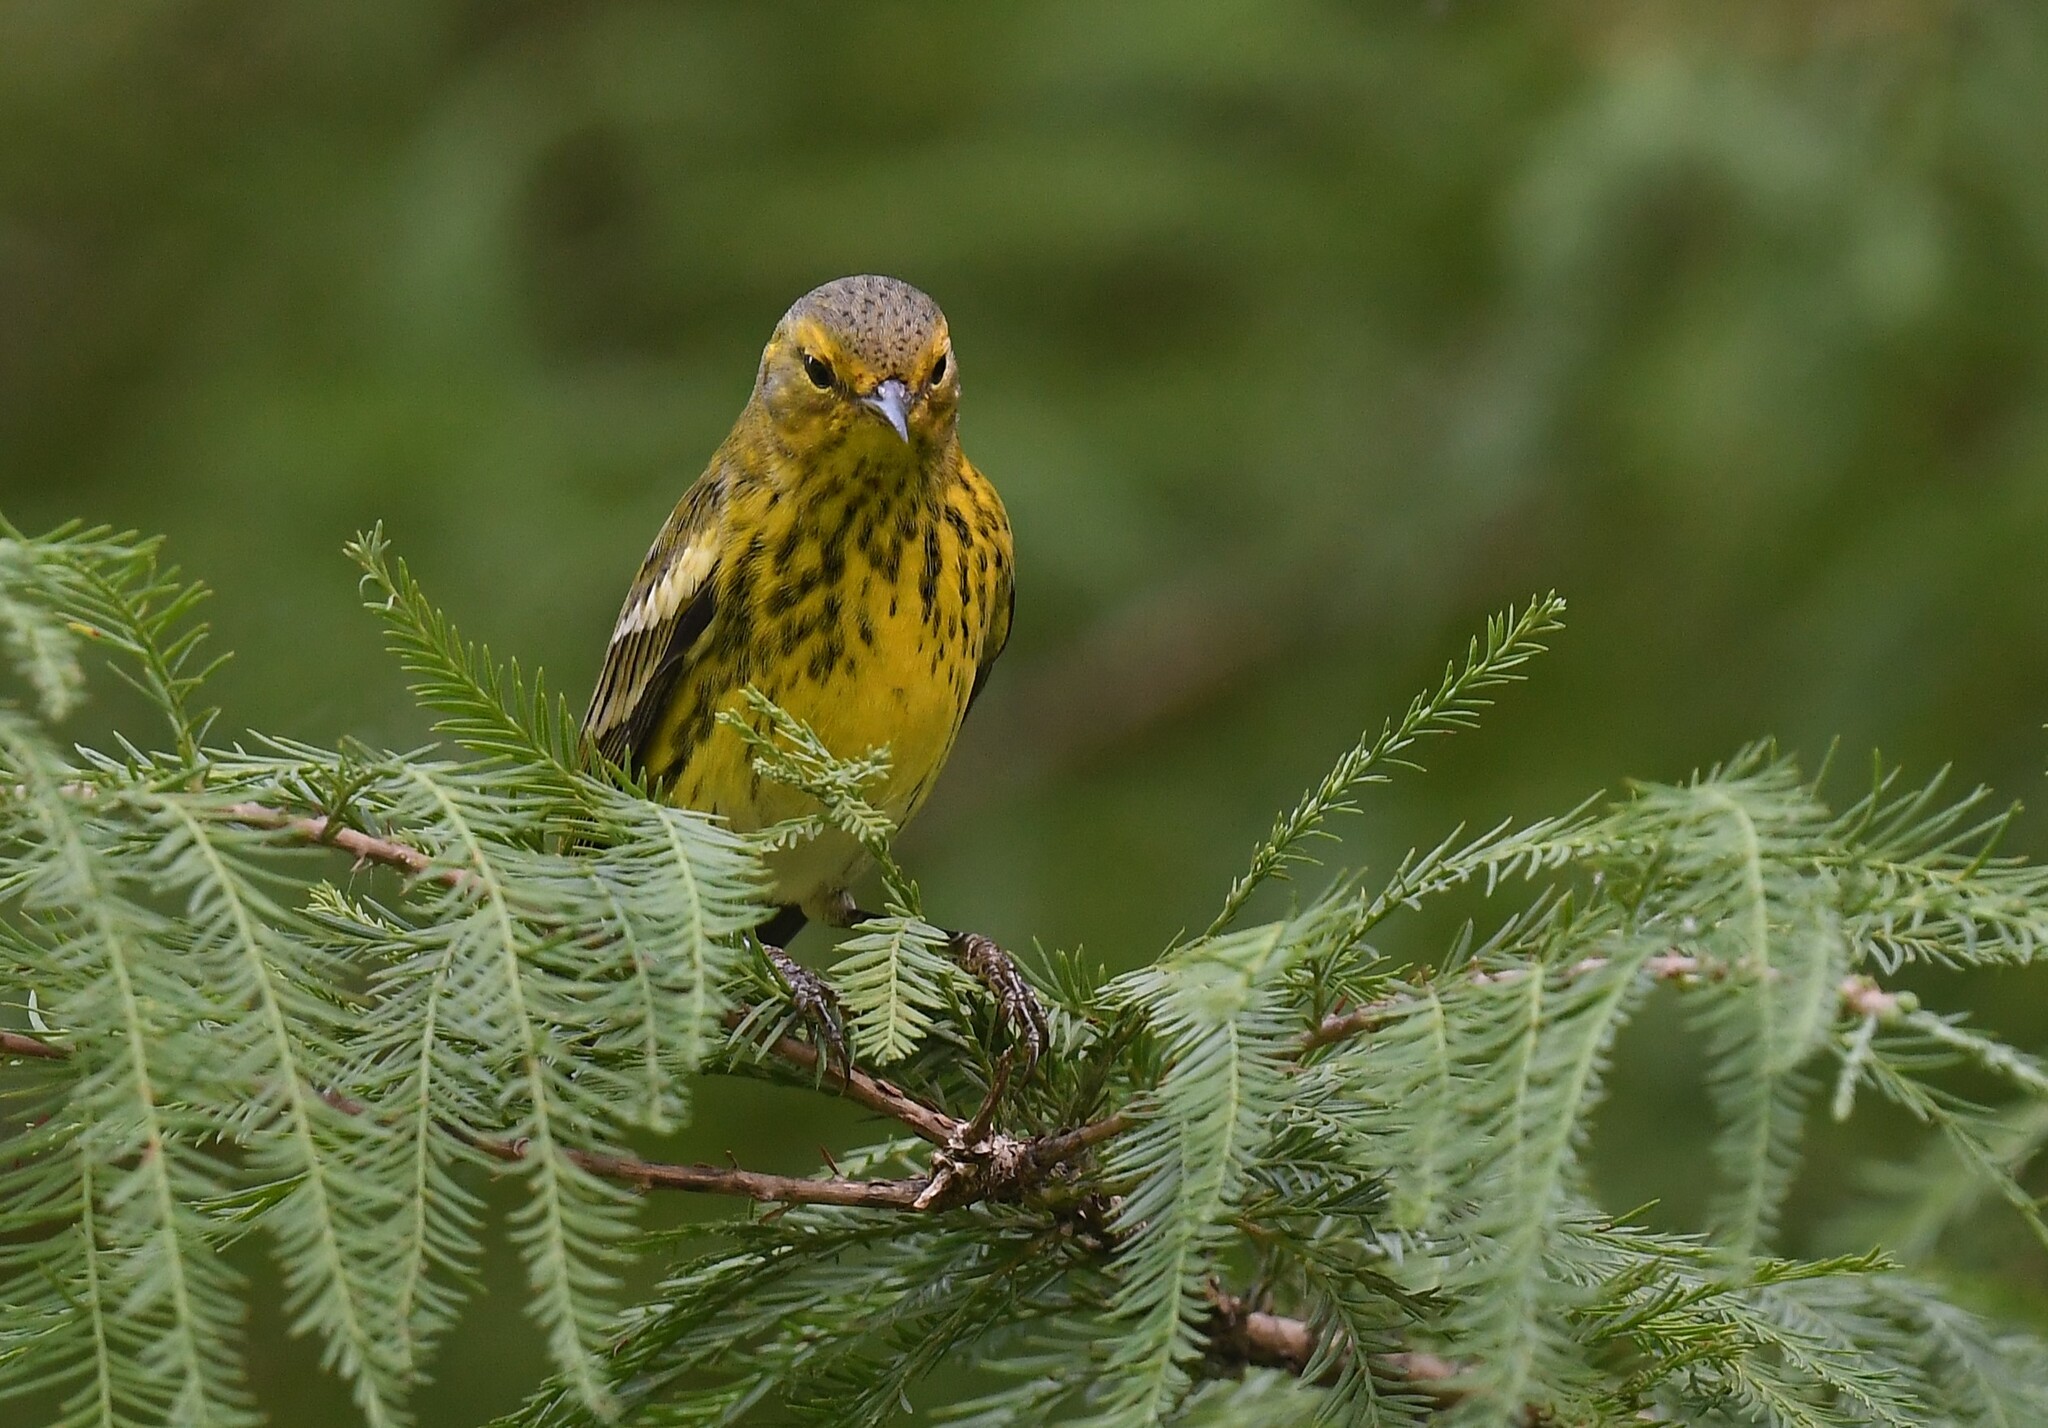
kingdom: Animalia
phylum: Chordata
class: Aves
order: Passeriformes
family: Parulidae
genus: Setophaga
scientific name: Setophaga tigrina
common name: Cape may warbler
